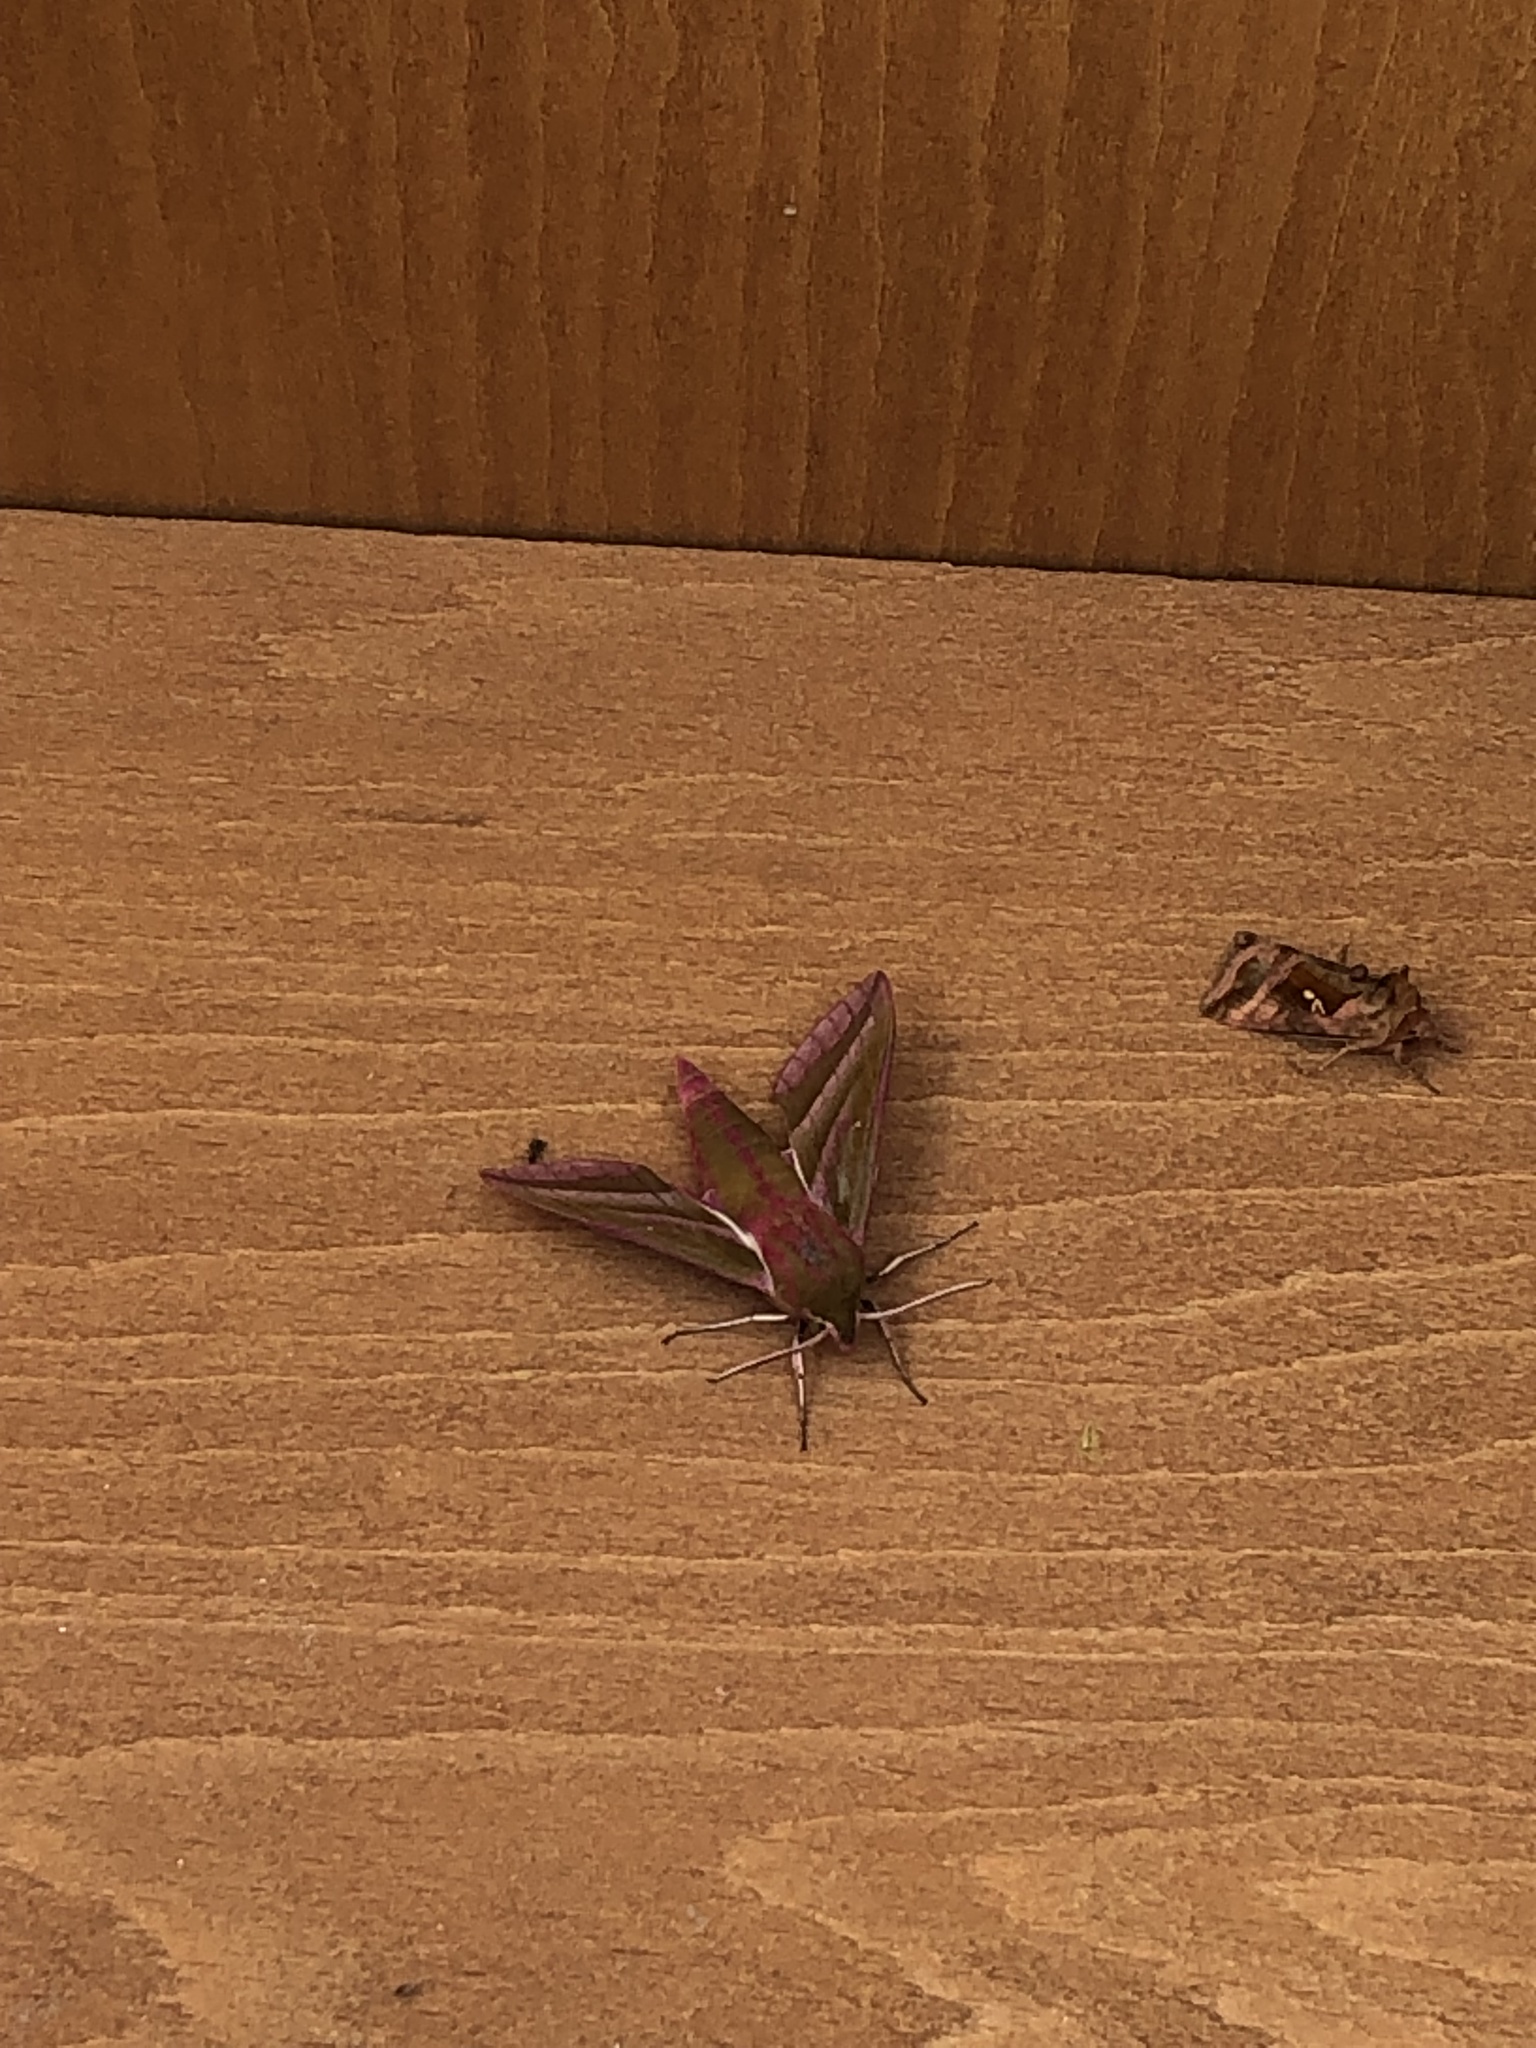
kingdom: Animalia
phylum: Arthropoda
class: Insecta
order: Lepidoptera
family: Sphingidae
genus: Deilephila
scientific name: Deilephila elpenor
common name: Elephant hawk-moth
